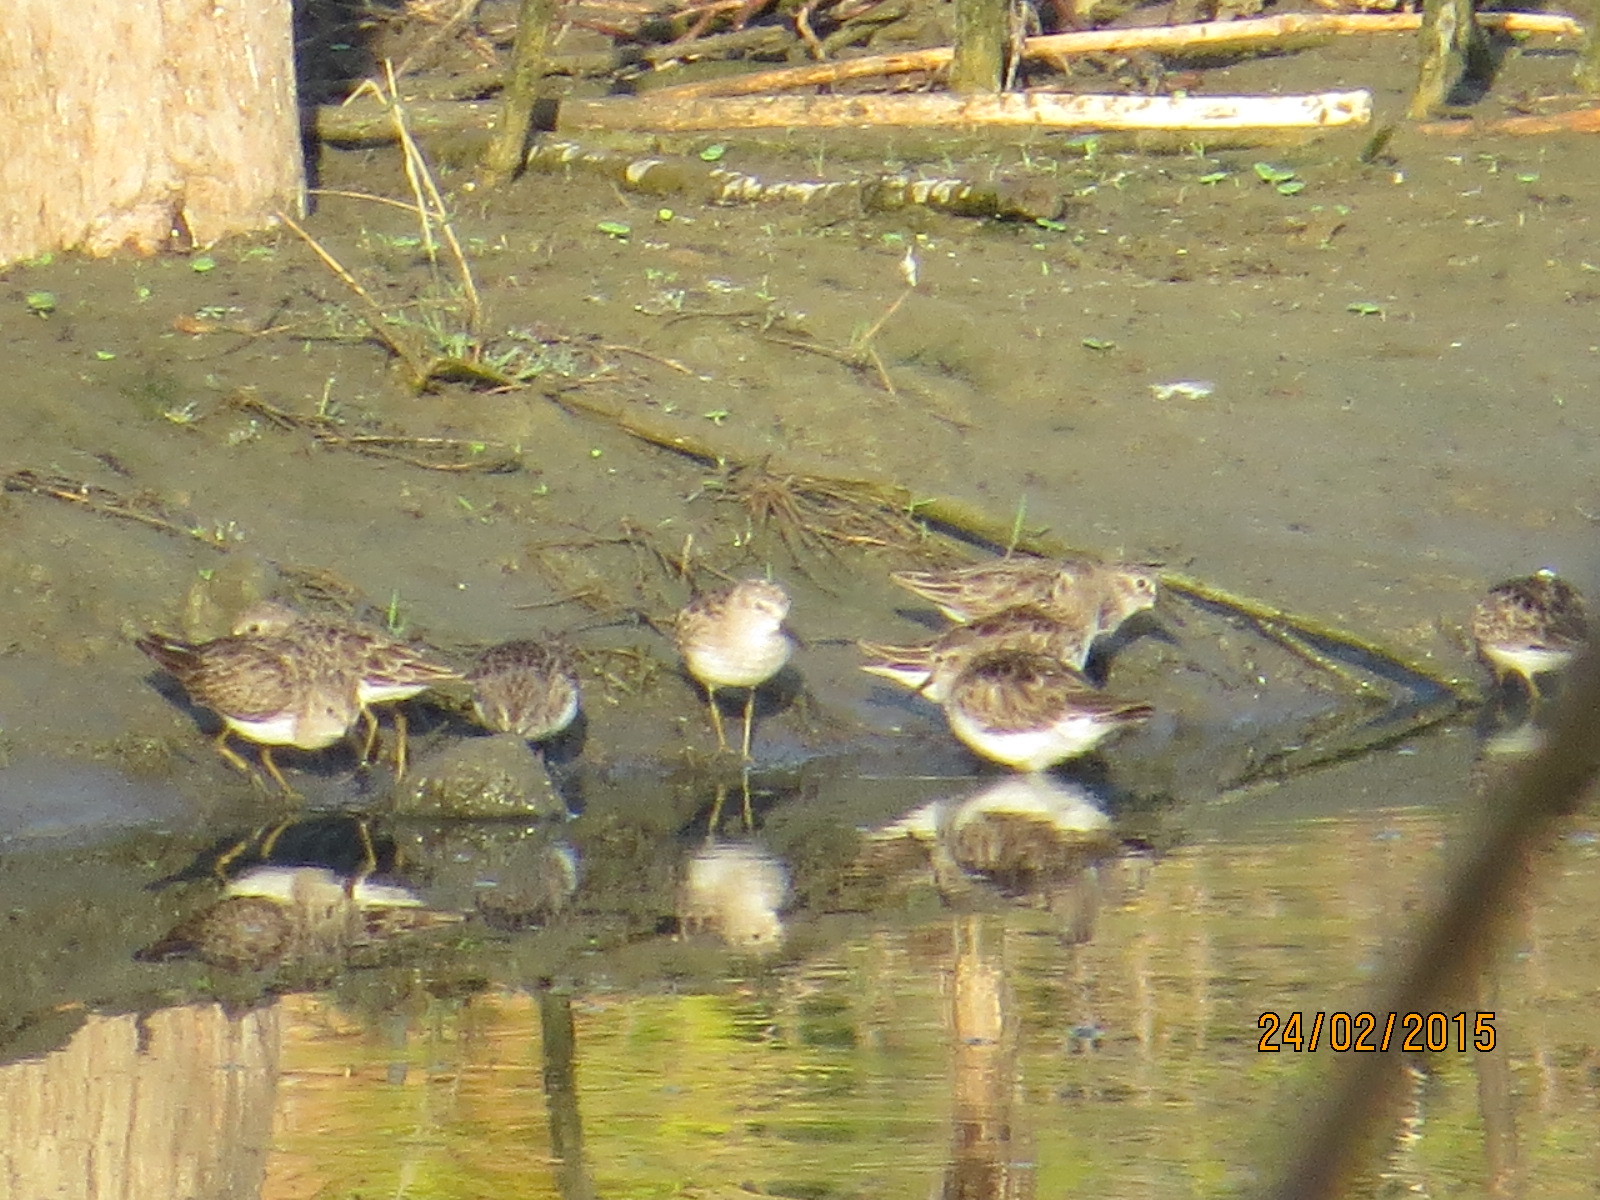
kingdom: Animalia
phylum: Chordata
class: Aves
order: Charadriiformes
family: Scolopacidae
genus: Calidris
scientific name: Calidris minutilla
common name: Least sandpiper
